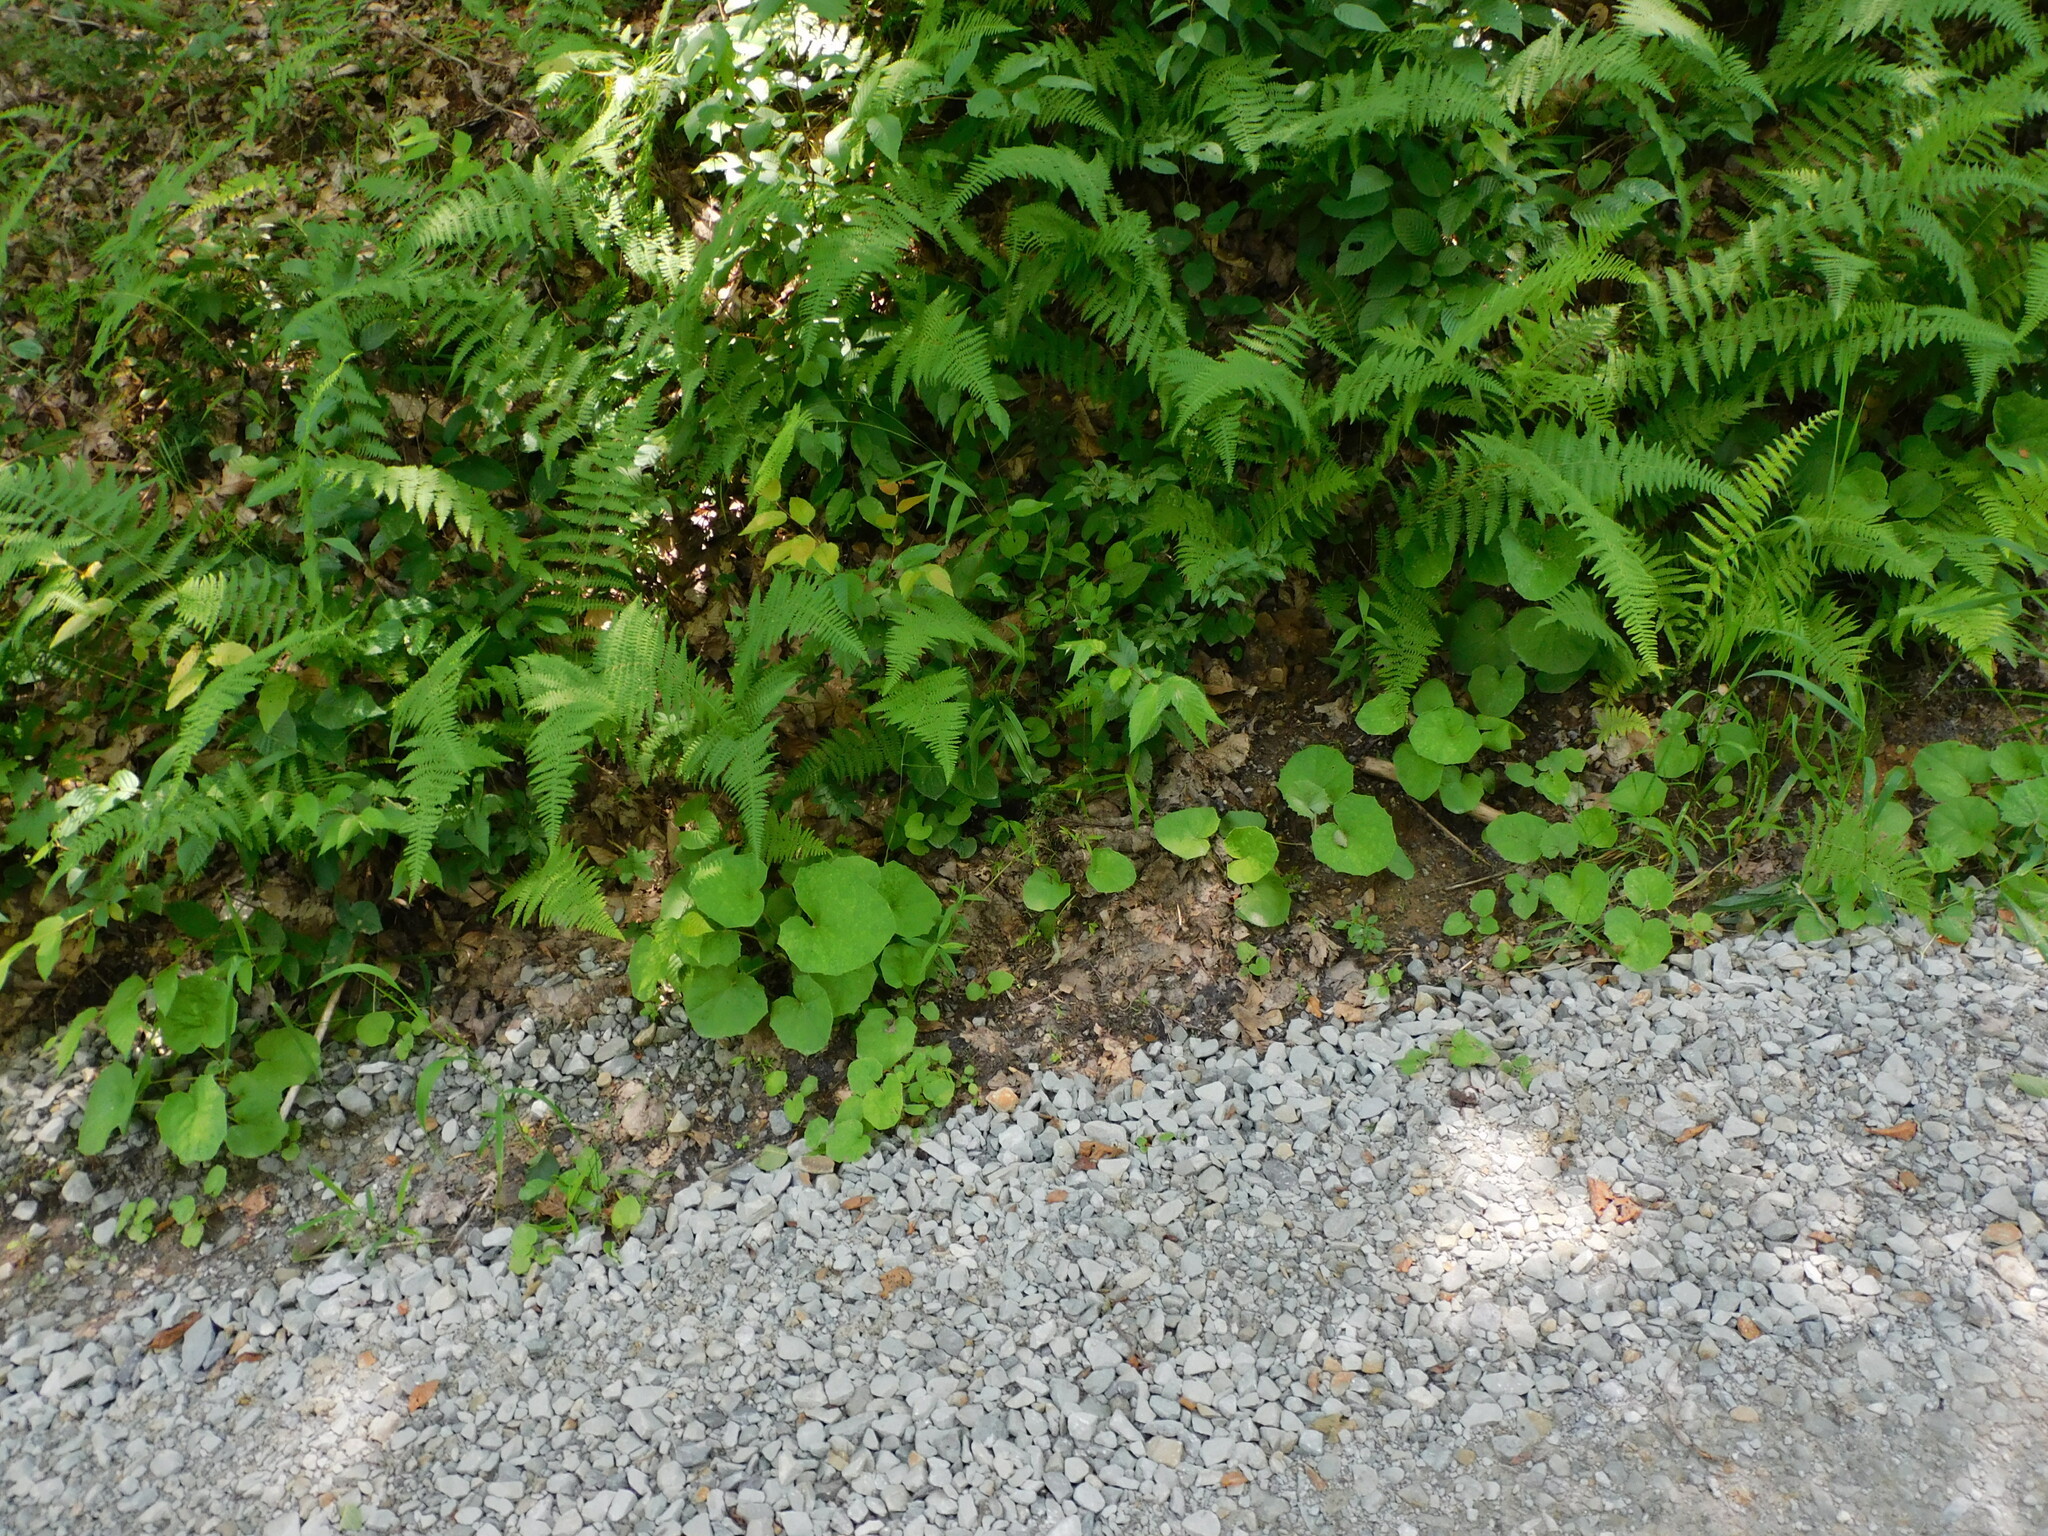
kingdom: Plantae
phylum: Tracheophyta
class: Magnoliopsida
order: Asterales
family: Asteraceae
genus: Tussilago
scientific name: Tussilago farfara
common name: Coltsfoot
